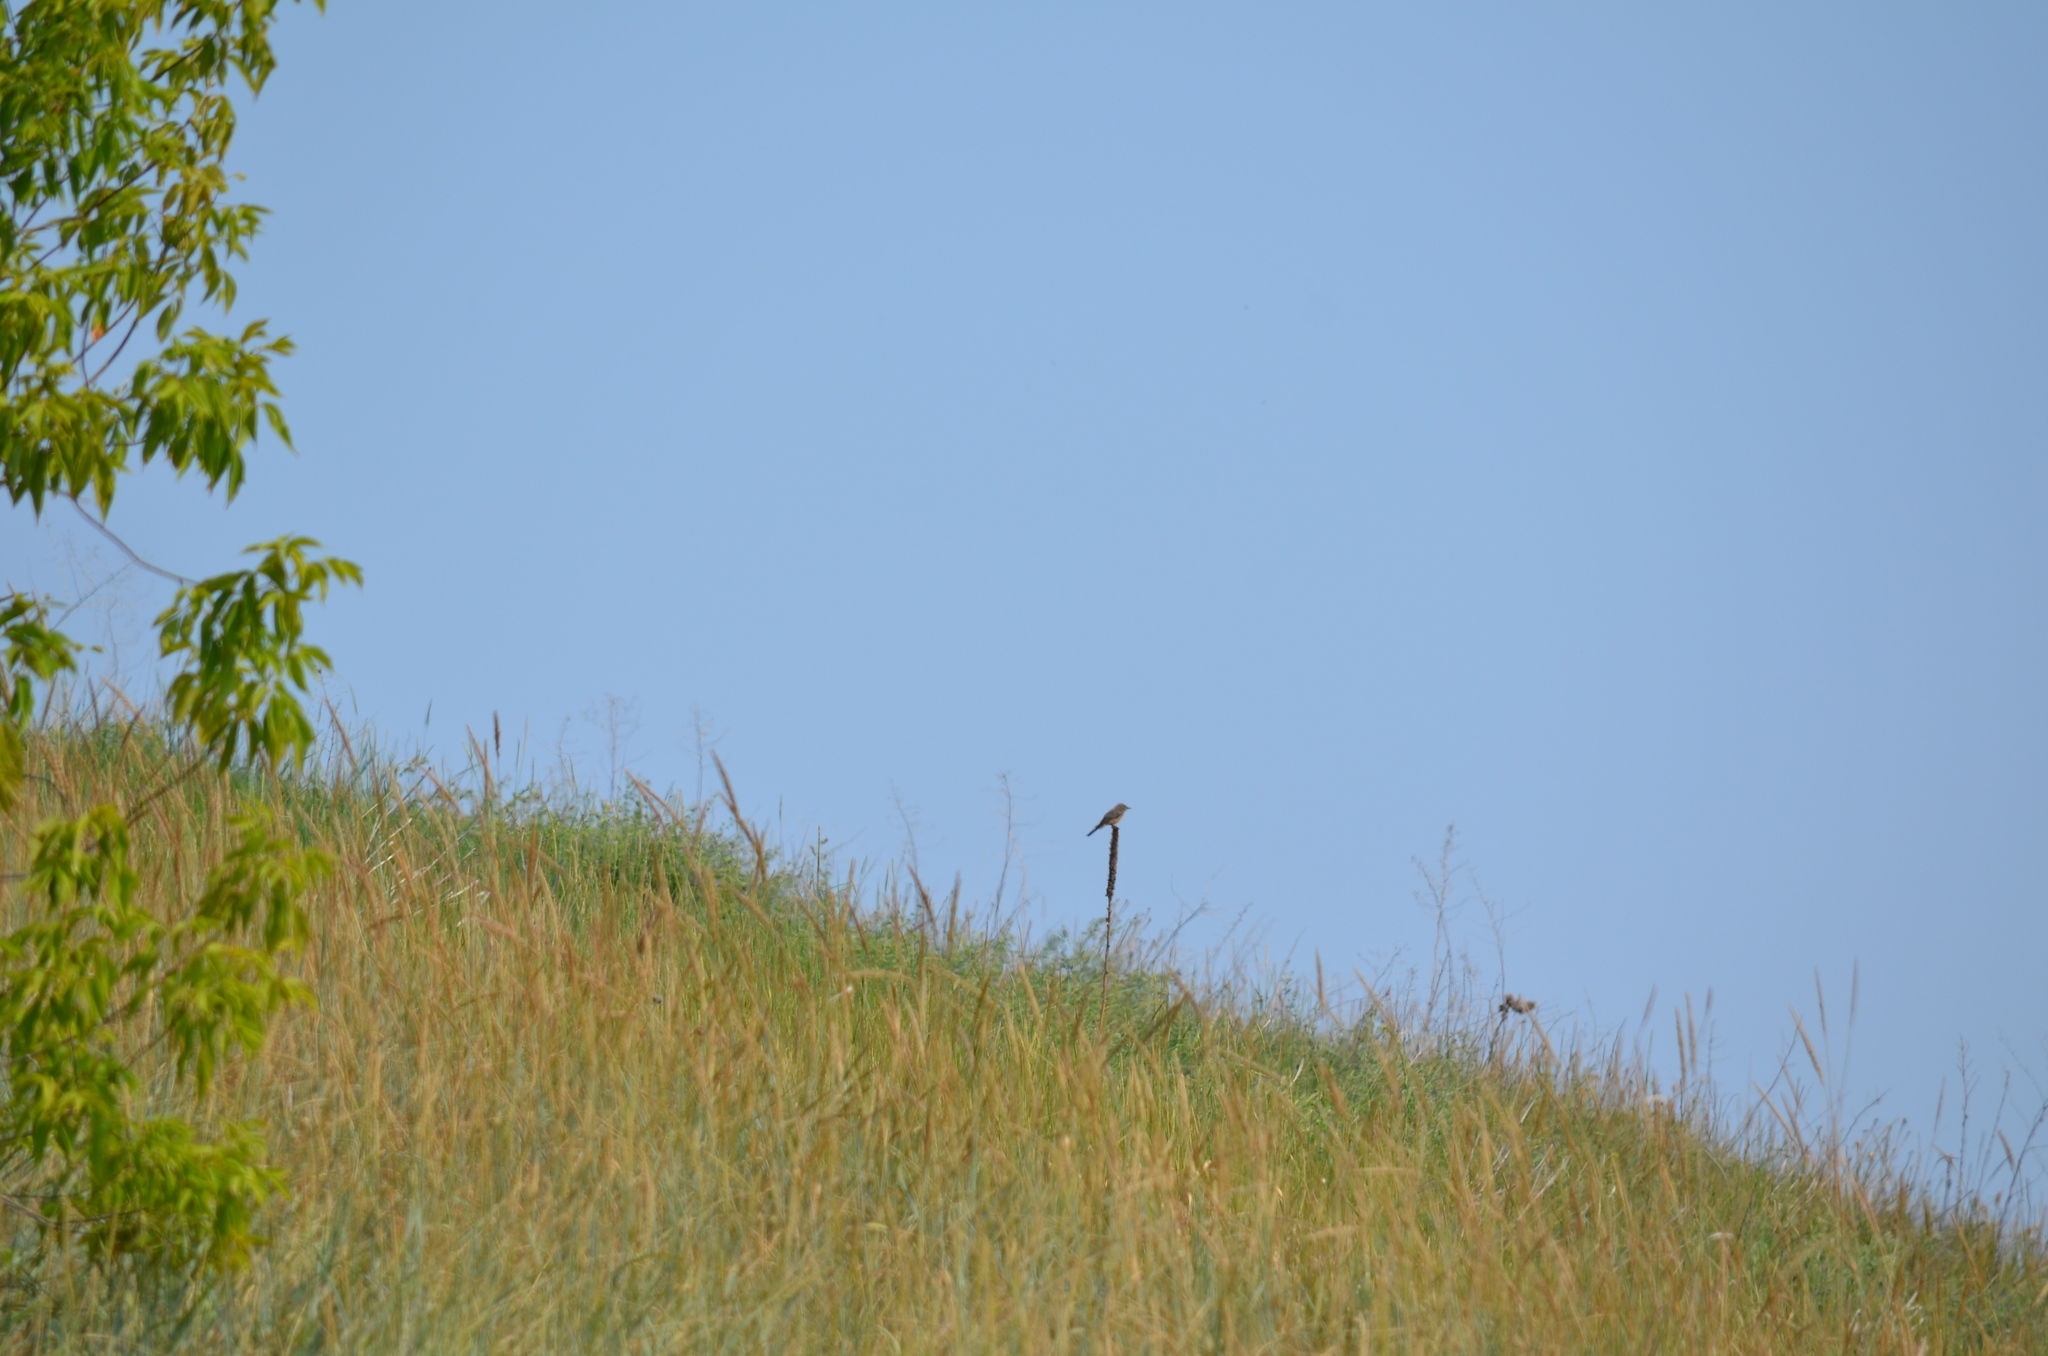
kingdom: Animalia
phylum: Chordata
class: Aves
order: Passeriformes
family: Tyrannidae
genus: Sayornis
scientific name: Sayornis saya
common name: Say's phoebe
